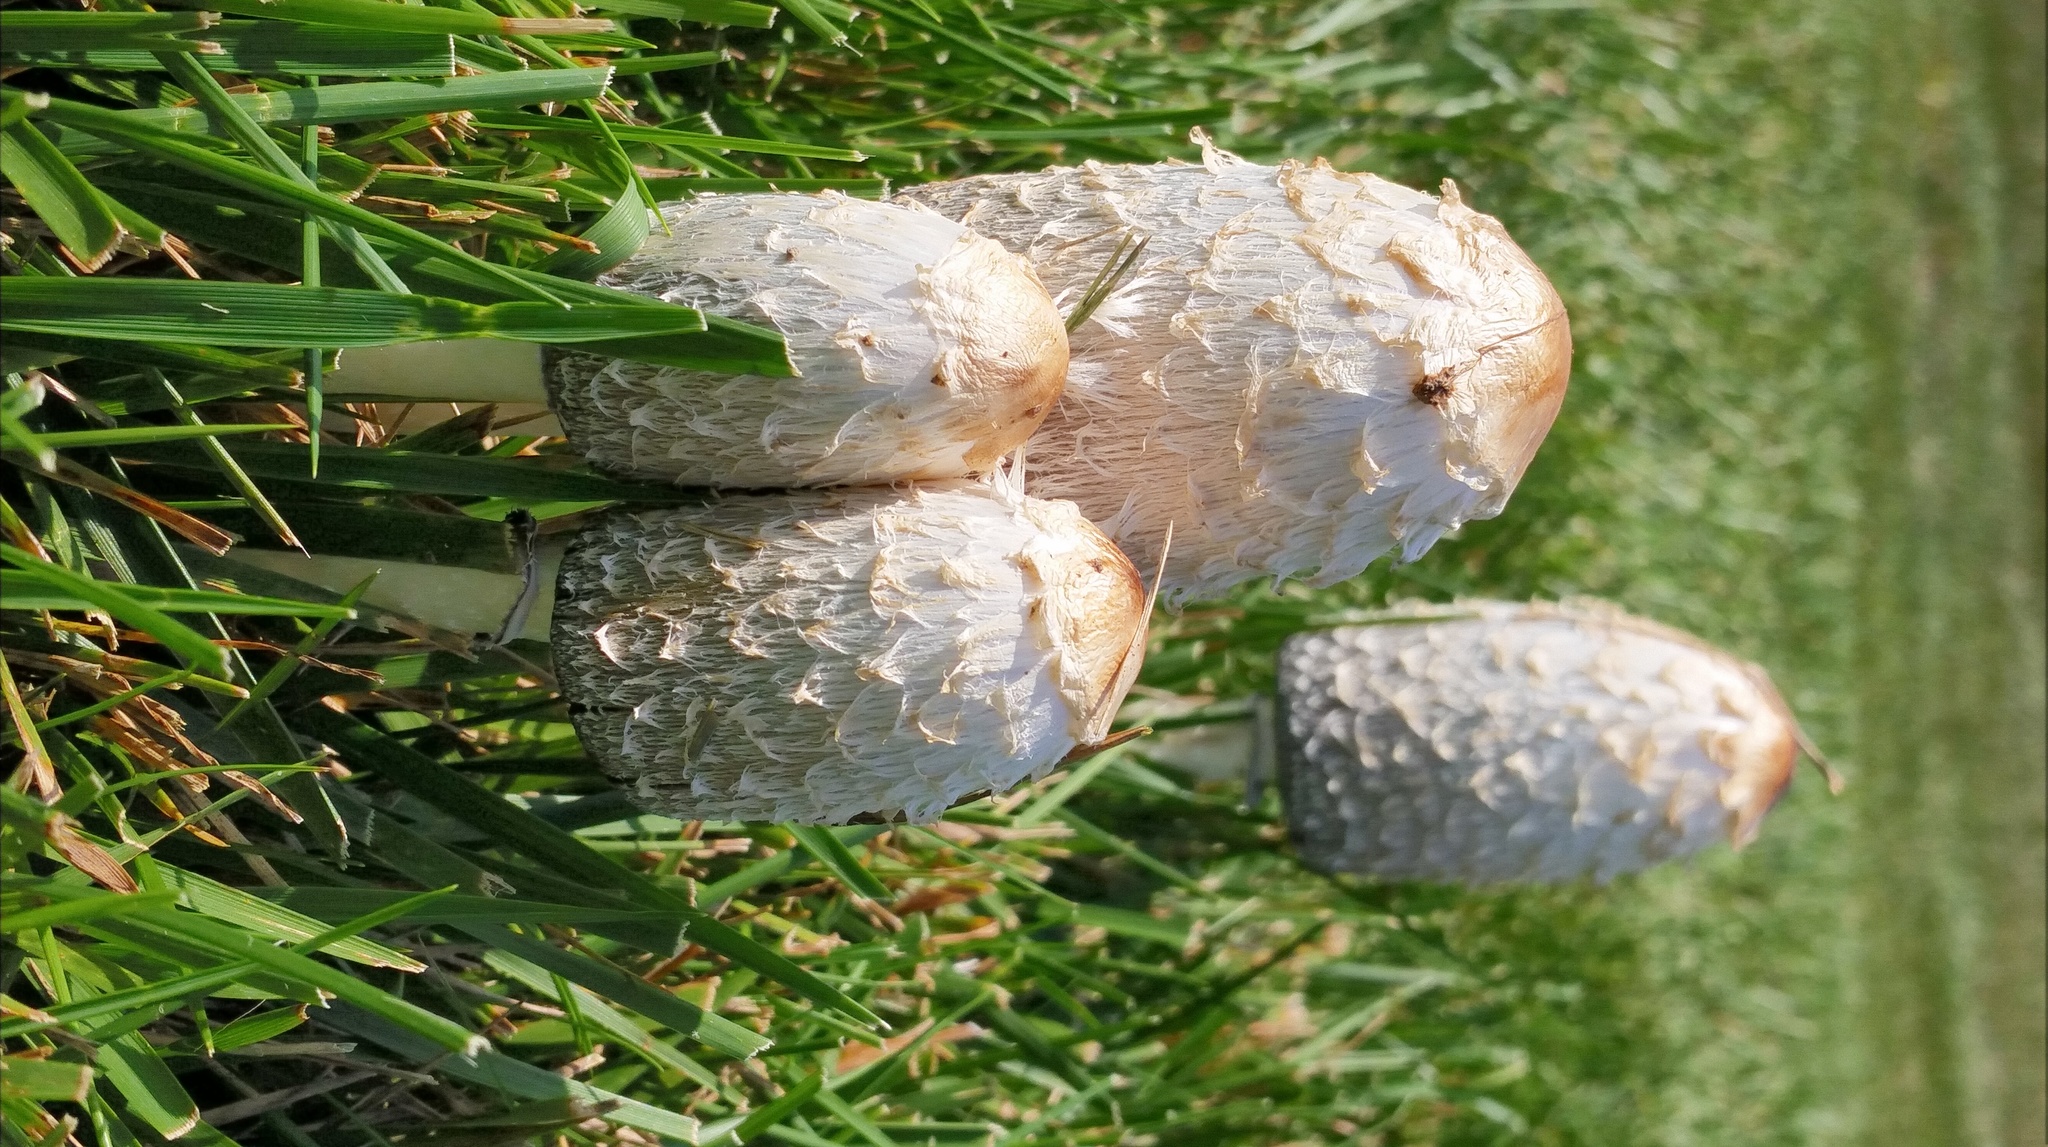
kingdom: Fungi
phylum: Basidiomycota
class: Agaricomycetes
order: Agaricales
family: Agaricaceae
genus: Coprinus
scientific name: Coprinus comatus
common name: Lawyer's wig
